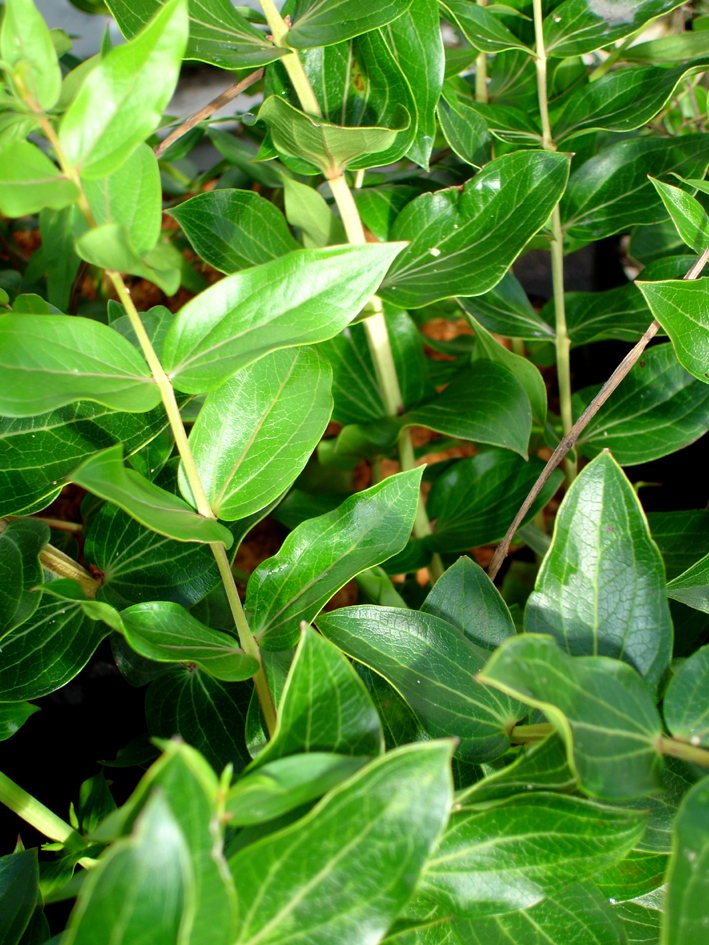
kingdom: Plantae
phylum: Tracheophyta
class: Magnoliopsida
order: Cucurbitales
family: Coriariaceae
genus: Coriaria
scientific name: Coriaria arborea
